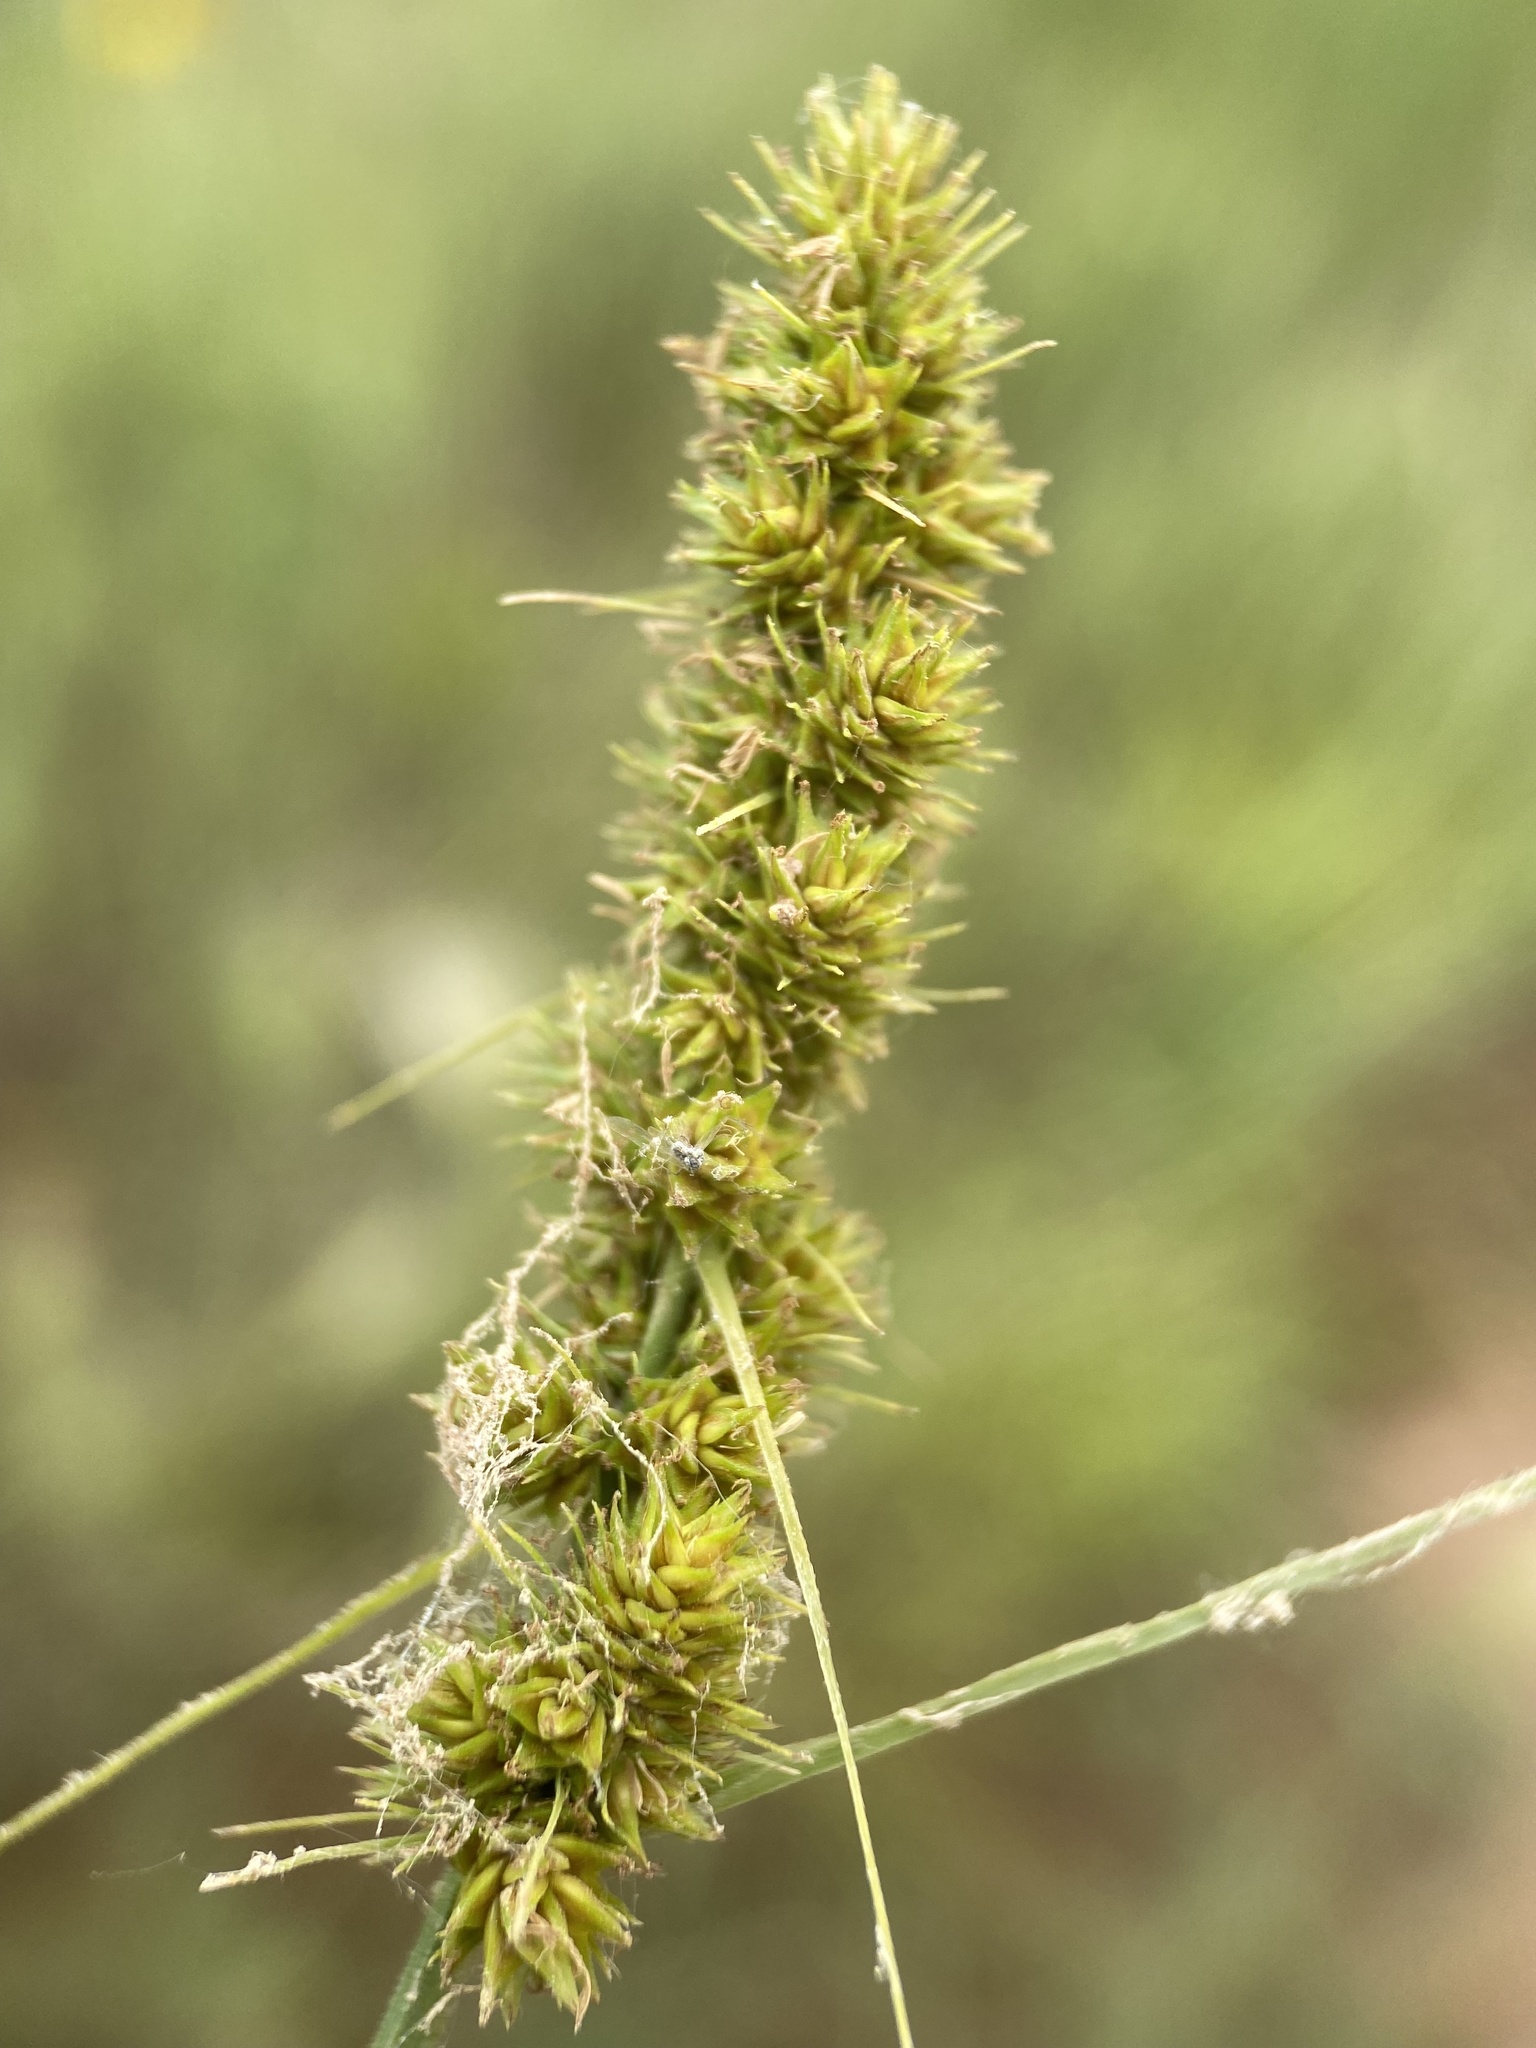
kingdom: Plantae
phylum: Tracheophyta
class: Liliopsida
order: Poales
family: Cyperaceae
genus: Carex
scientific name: Carex vulpinoidea
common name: American fox-sedge
